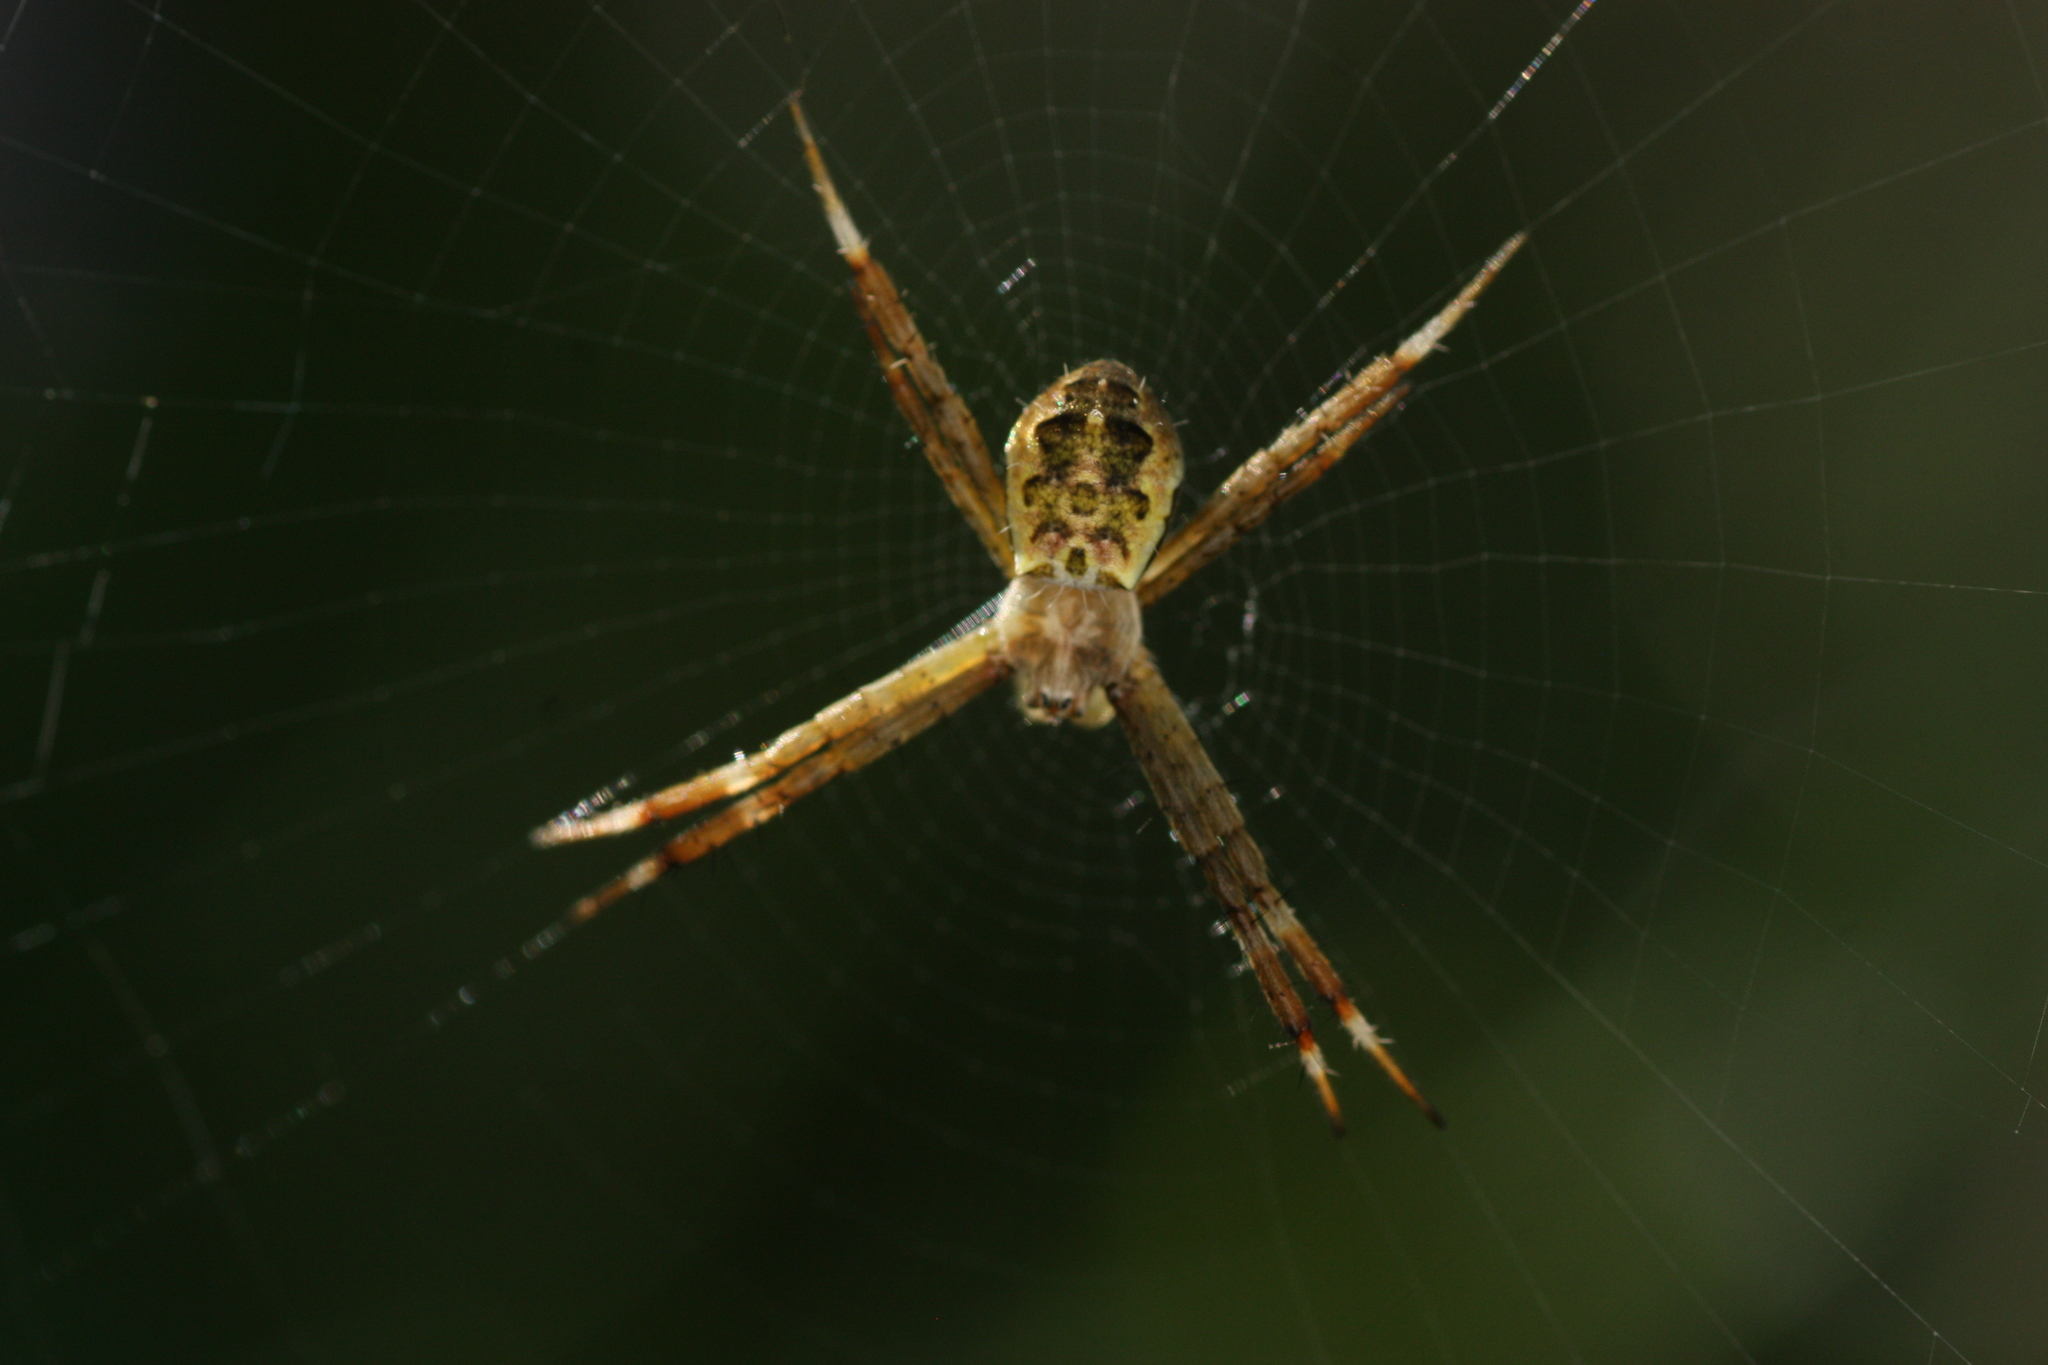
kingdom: Animalia
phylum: Arthropoda
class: Arachnida
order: Araneae
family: Araneidae
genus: Argiope
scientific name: Argiope appensa
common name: Garden spider
